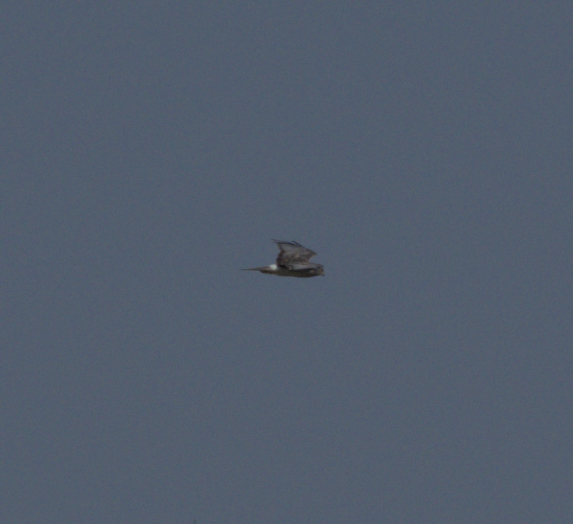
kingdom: Animalia
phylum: Chordata
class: Aves
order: Accipitriformes
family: Accipitridae
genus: Circus
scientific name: Circus cyaneus
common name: Hen harrier
